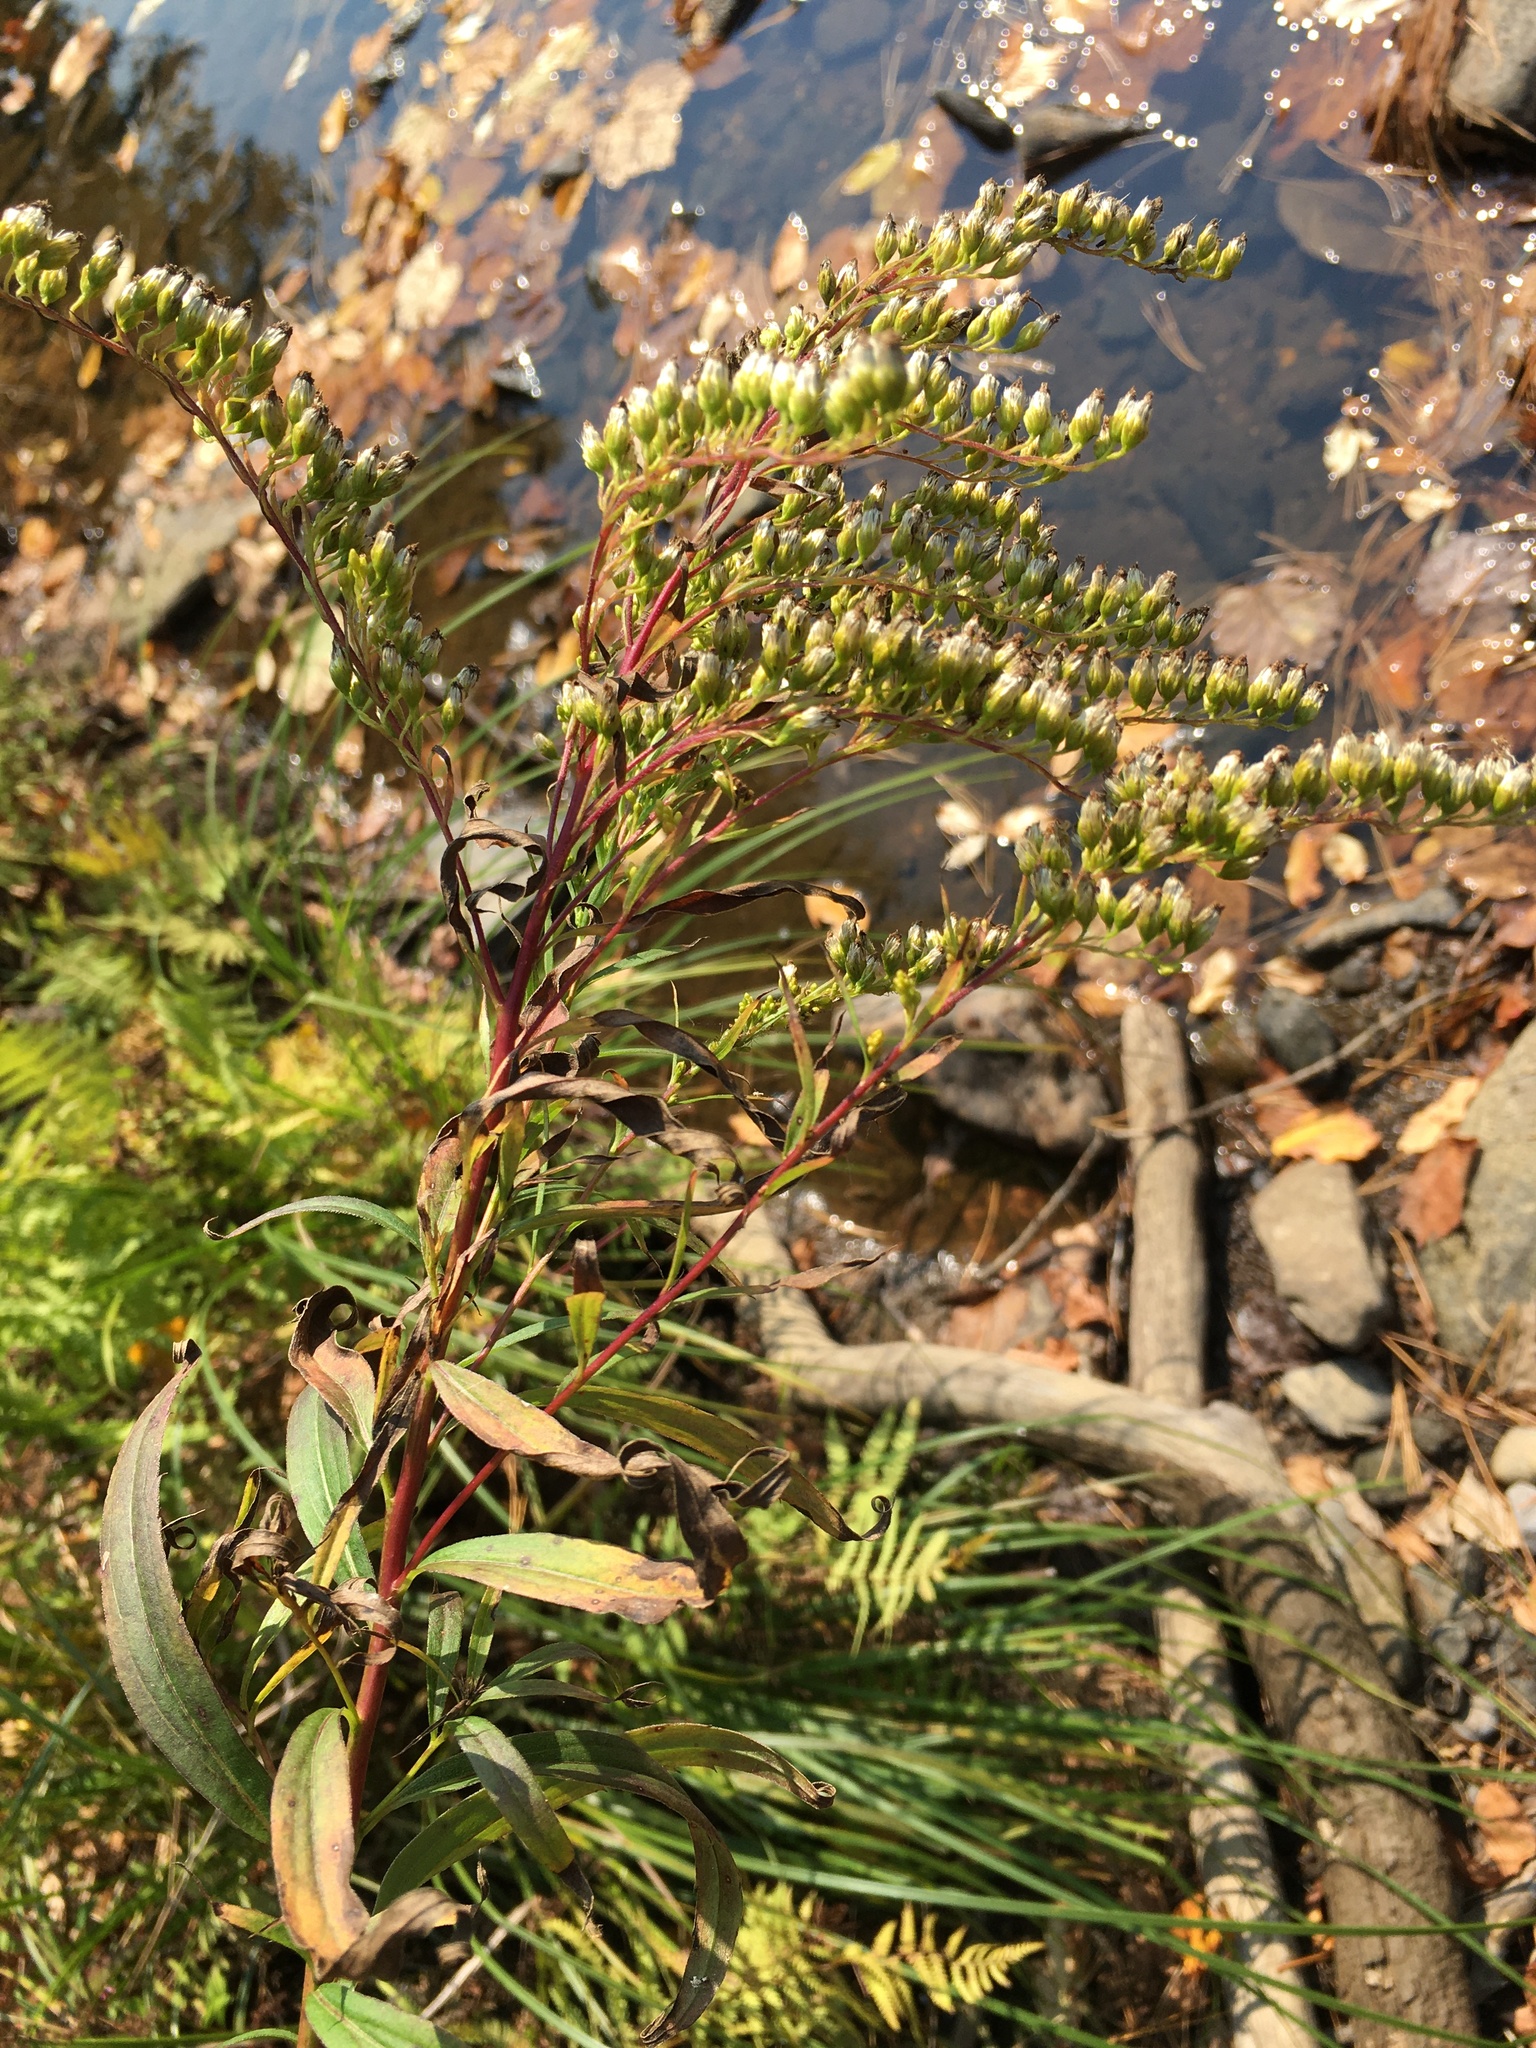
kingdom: Plantae
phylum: Tracheophyta
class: Magnoliopsida
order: Asterales
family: Asteraceae
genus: Solidago
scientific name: Solidago gigantea
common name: Giant goldenrod
